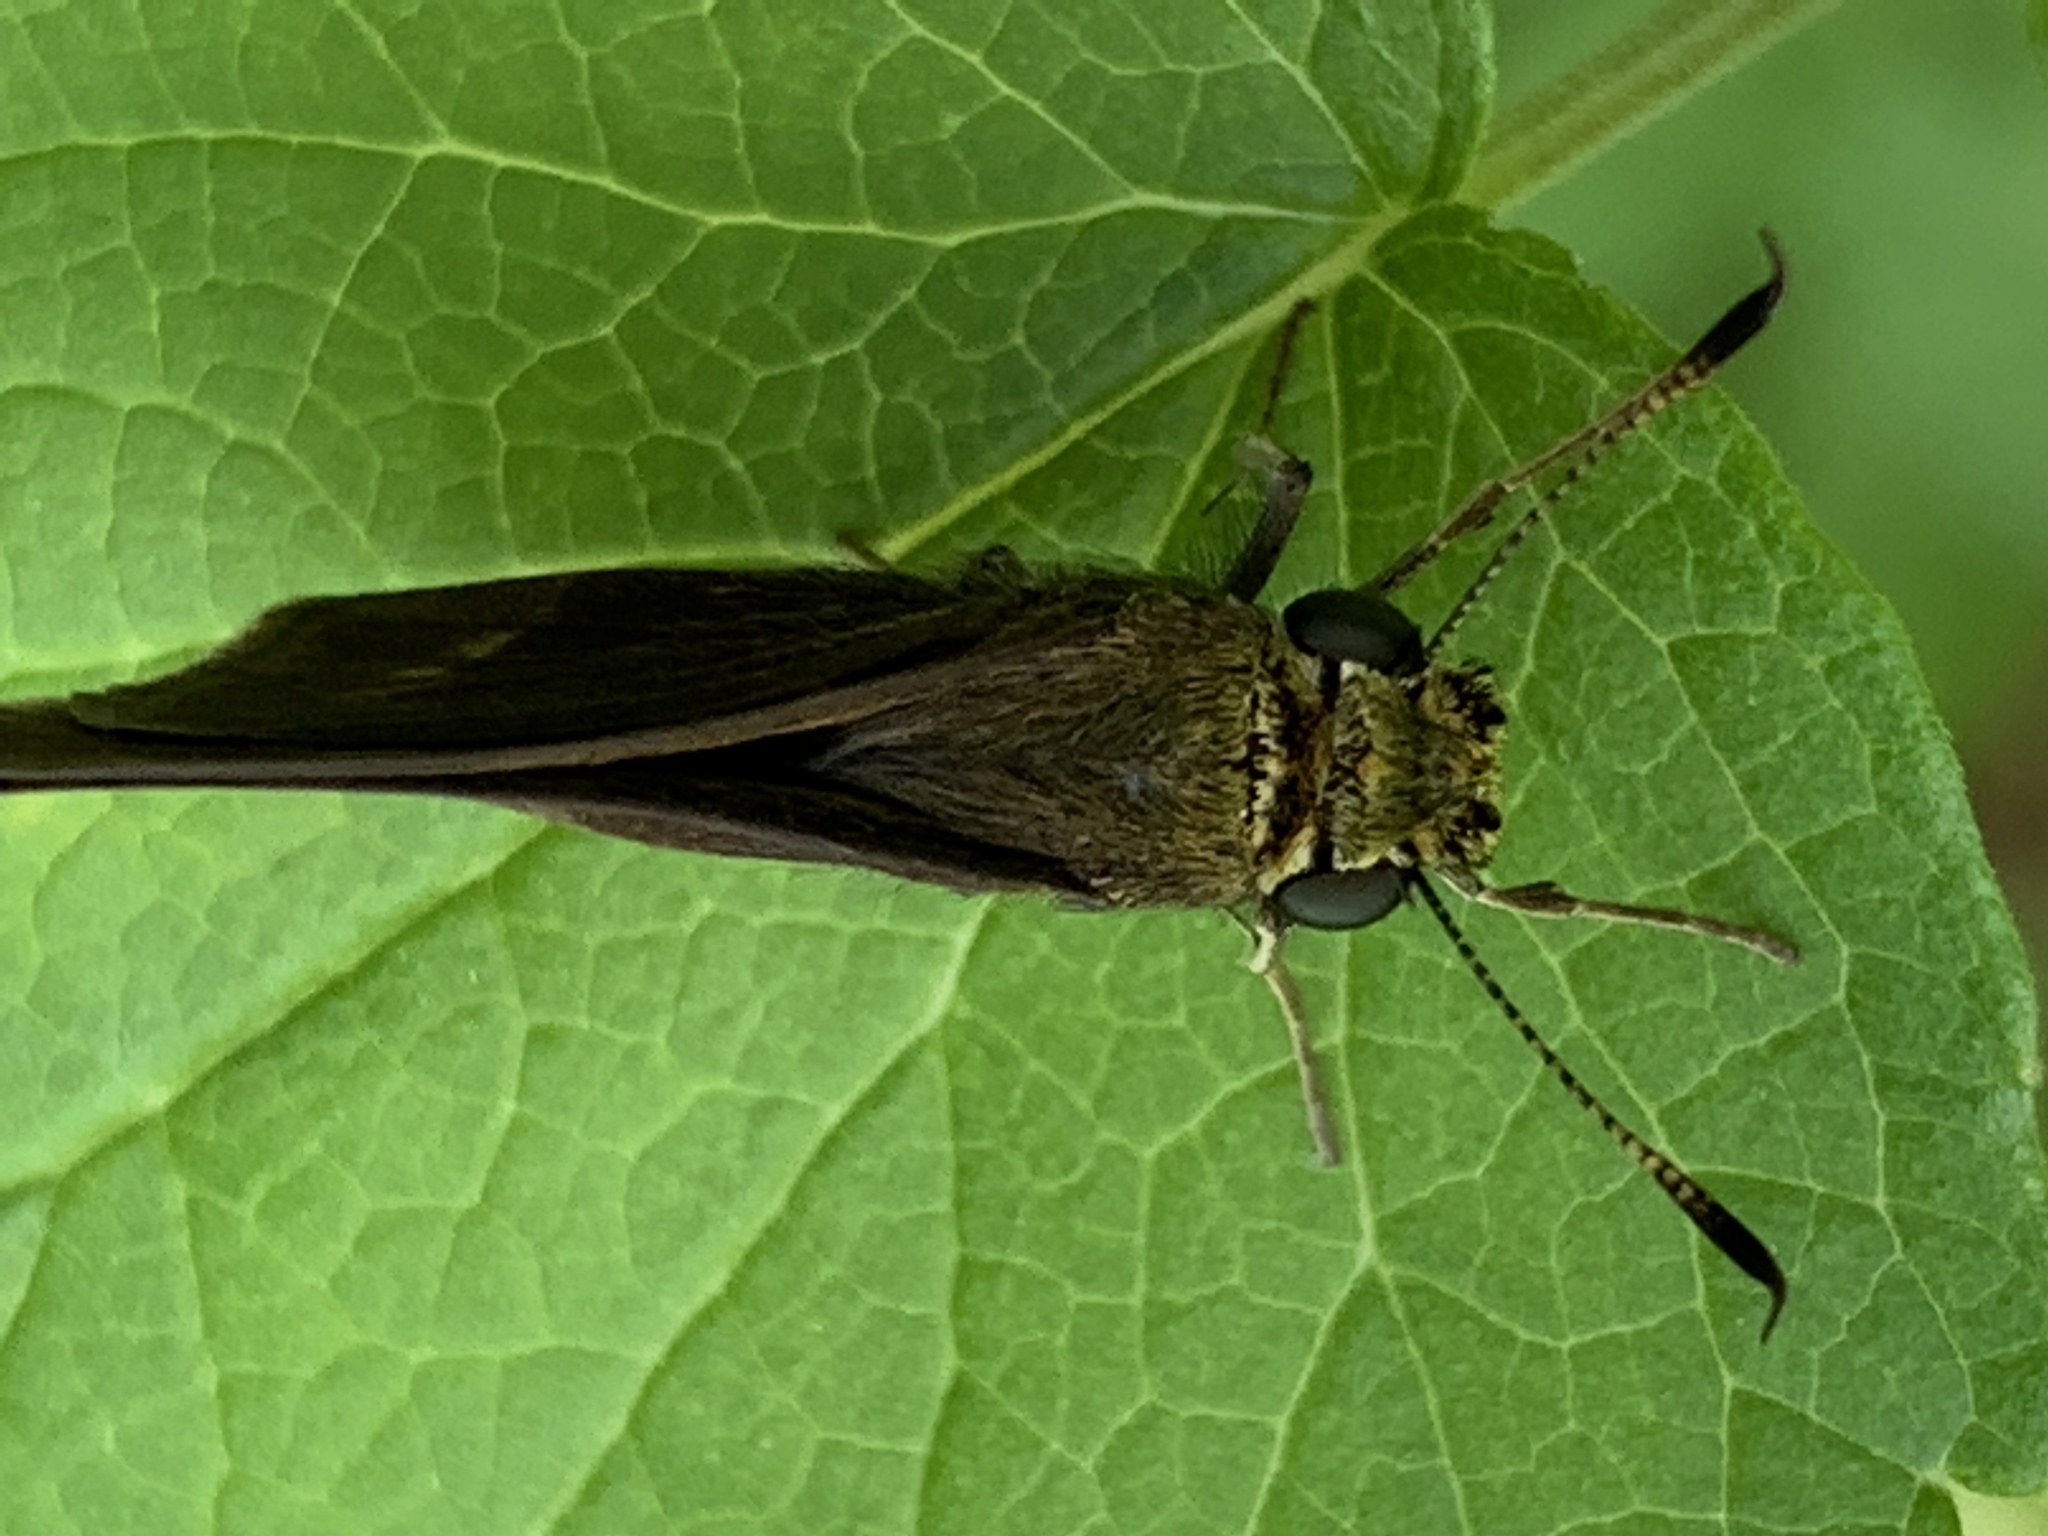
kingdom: Animalia
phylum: Arthropoda
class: Insecta
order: Lepidoptera
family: Hesperiidae
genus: Euphyes
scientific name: Euphyes vestris
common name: Dun skipper
